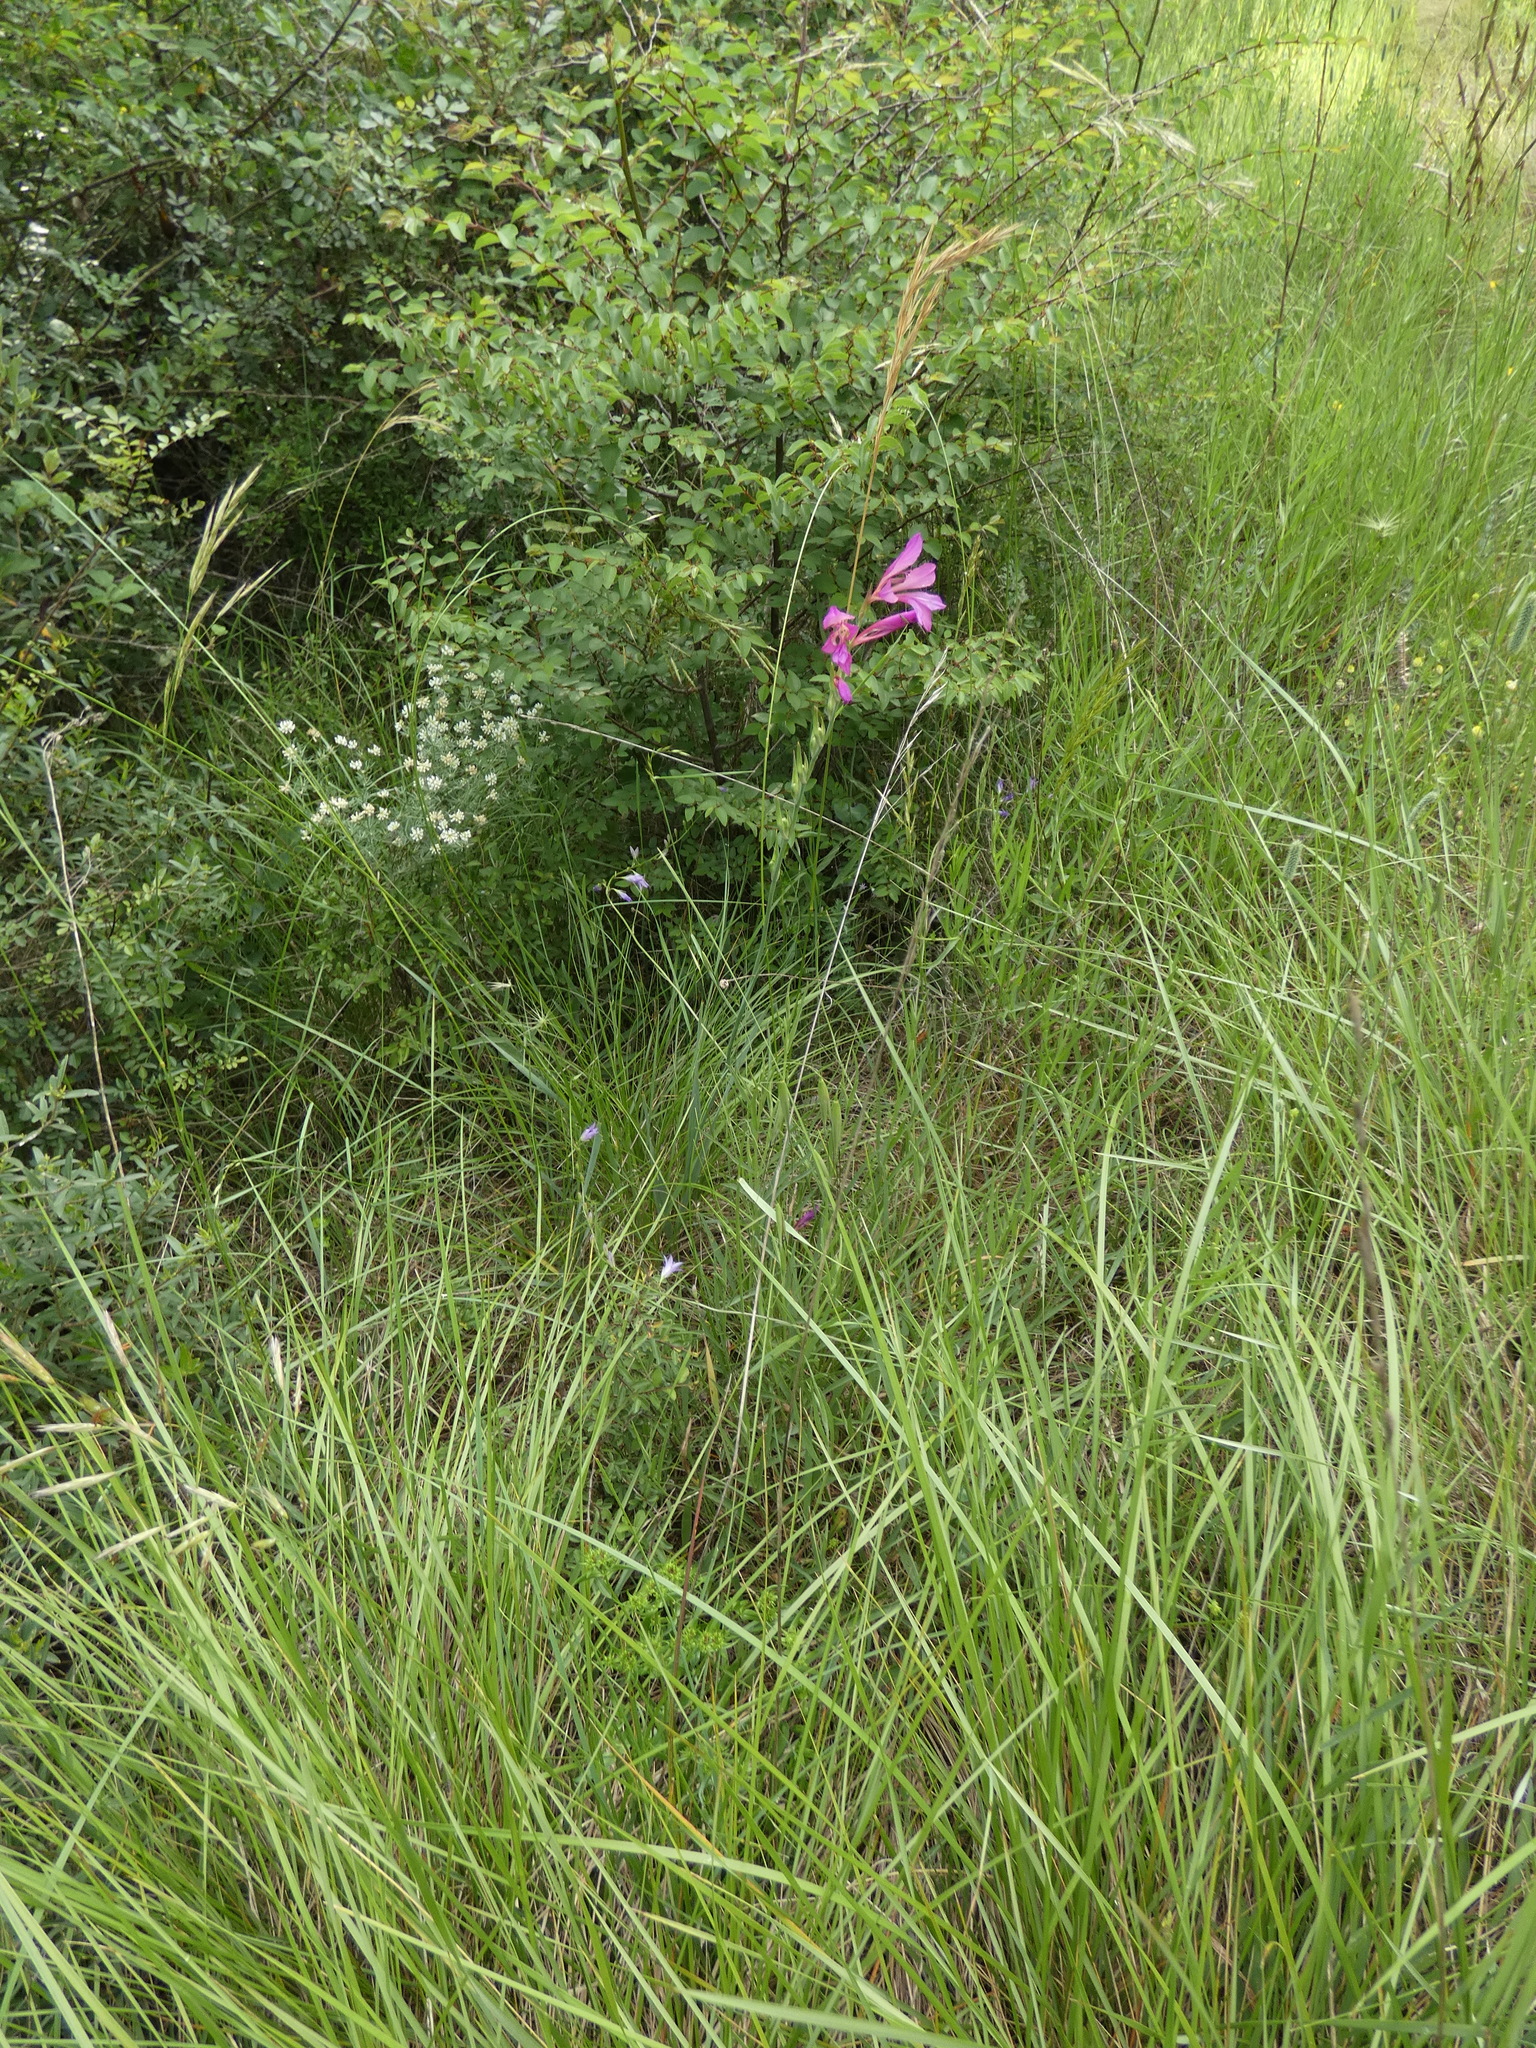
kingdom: Plantae
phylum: Tracheophyta
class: Liliopsida
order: Asparagales
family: Iridaceae
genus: Gladiolus
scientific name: Gladiolus dubius
